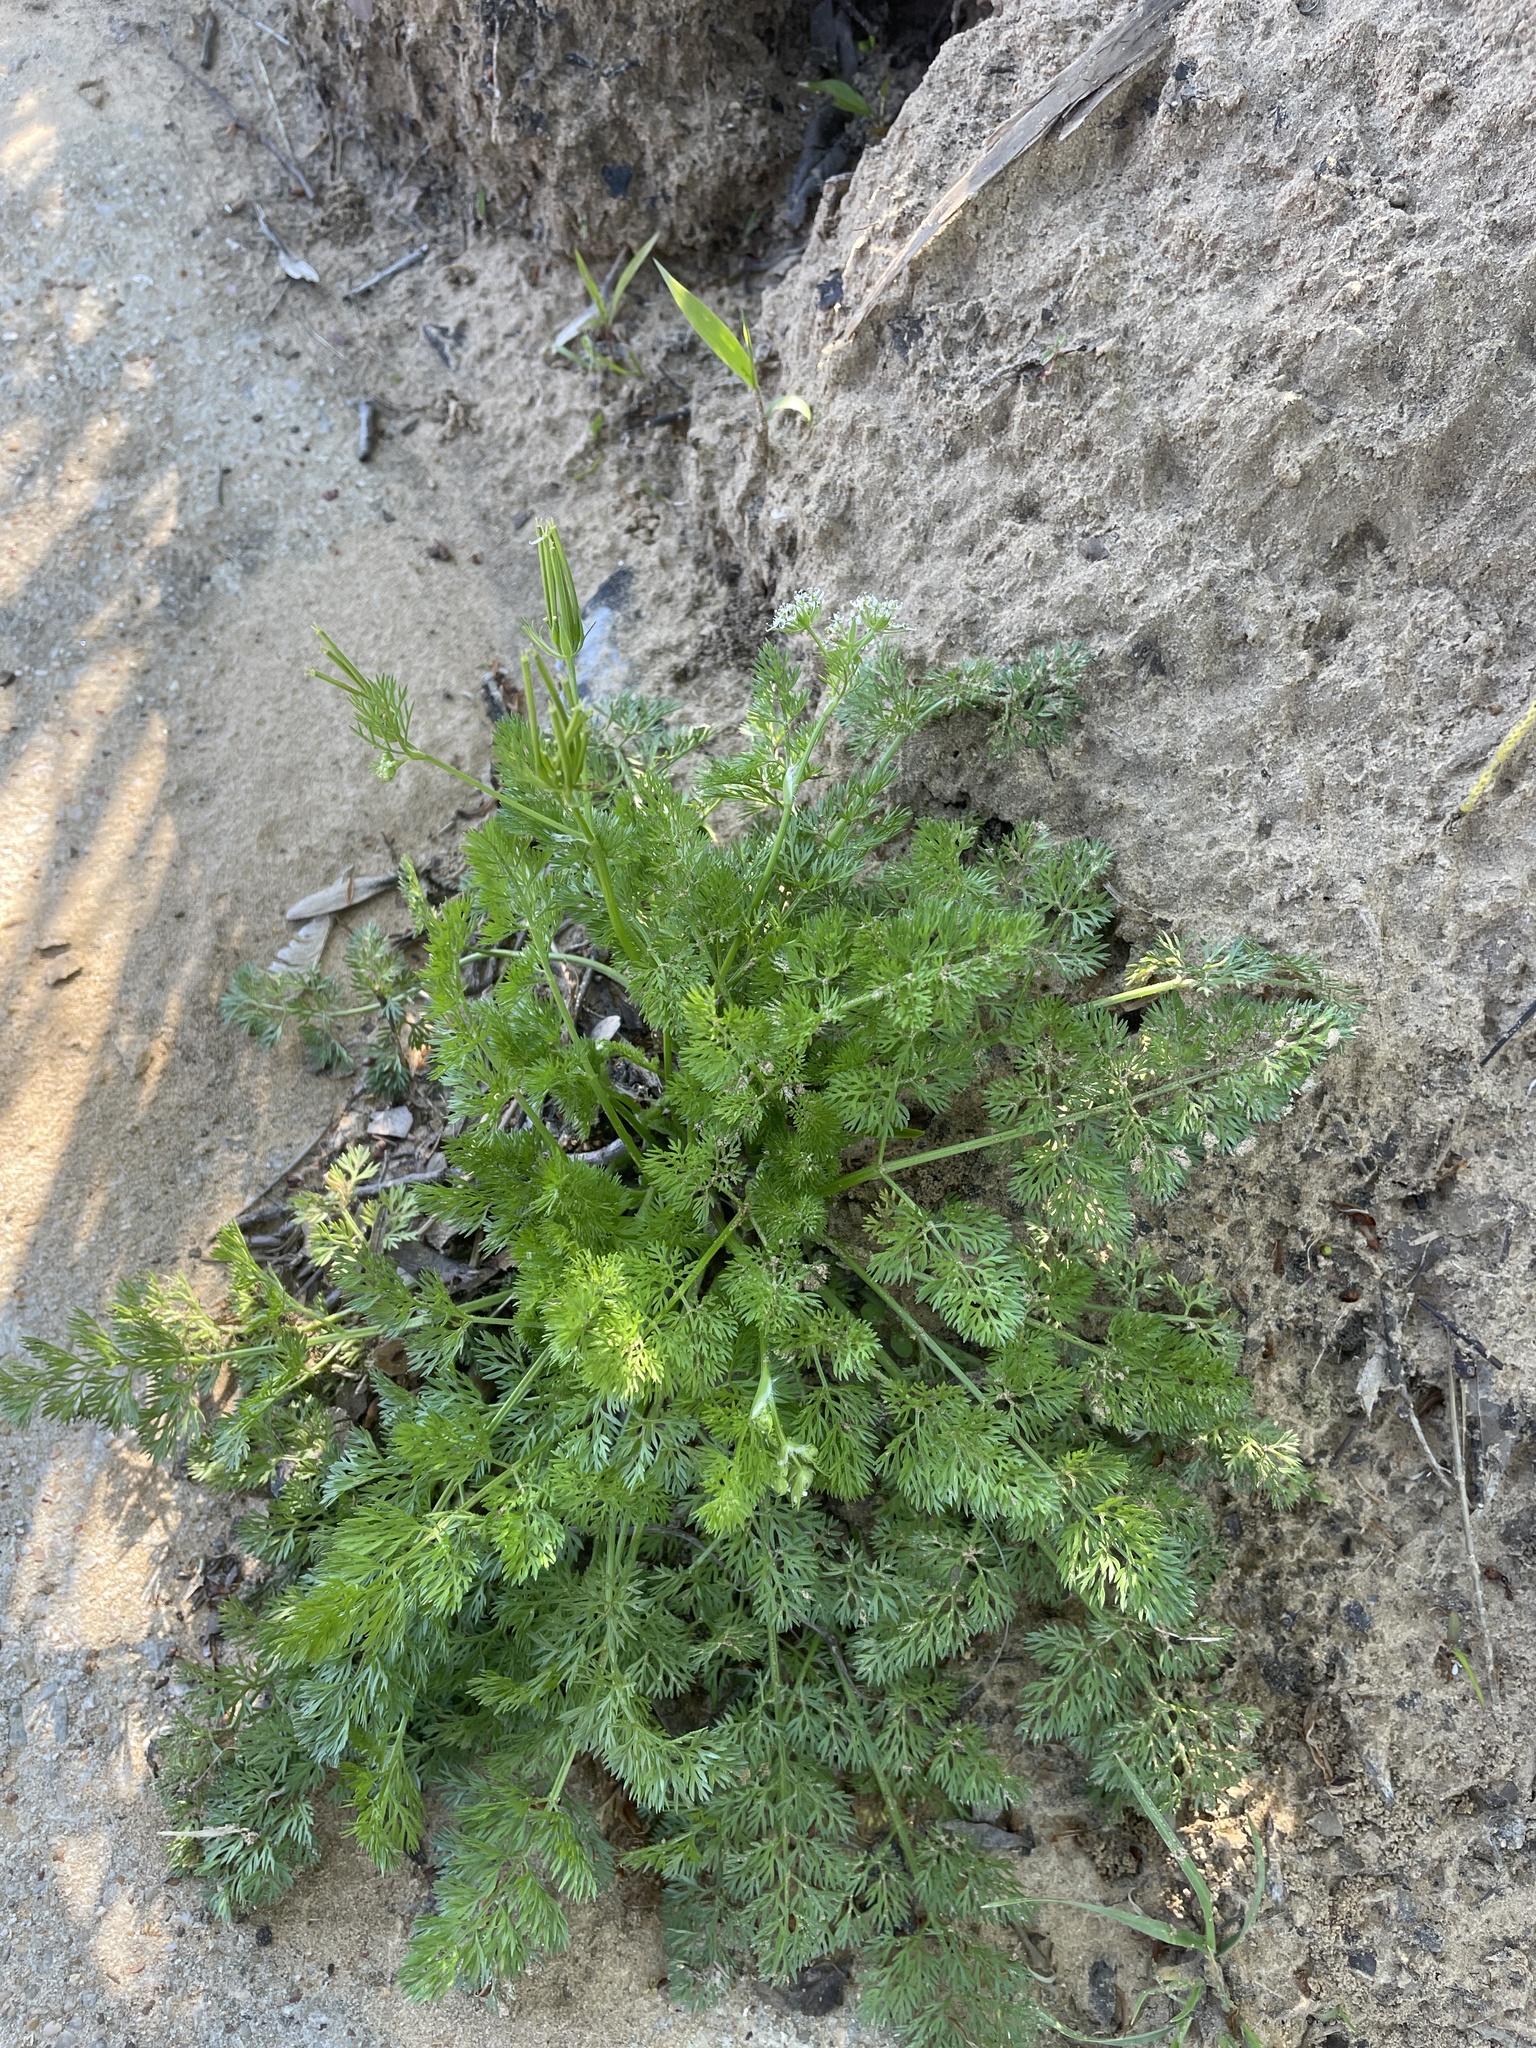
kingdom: Plantae
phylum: Tracheophyta
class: Magnoliopsida
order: Apiales
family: Apiaceae
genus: Scandix
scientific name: Scandix pecten-veneris
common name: Shepherd's-needle
